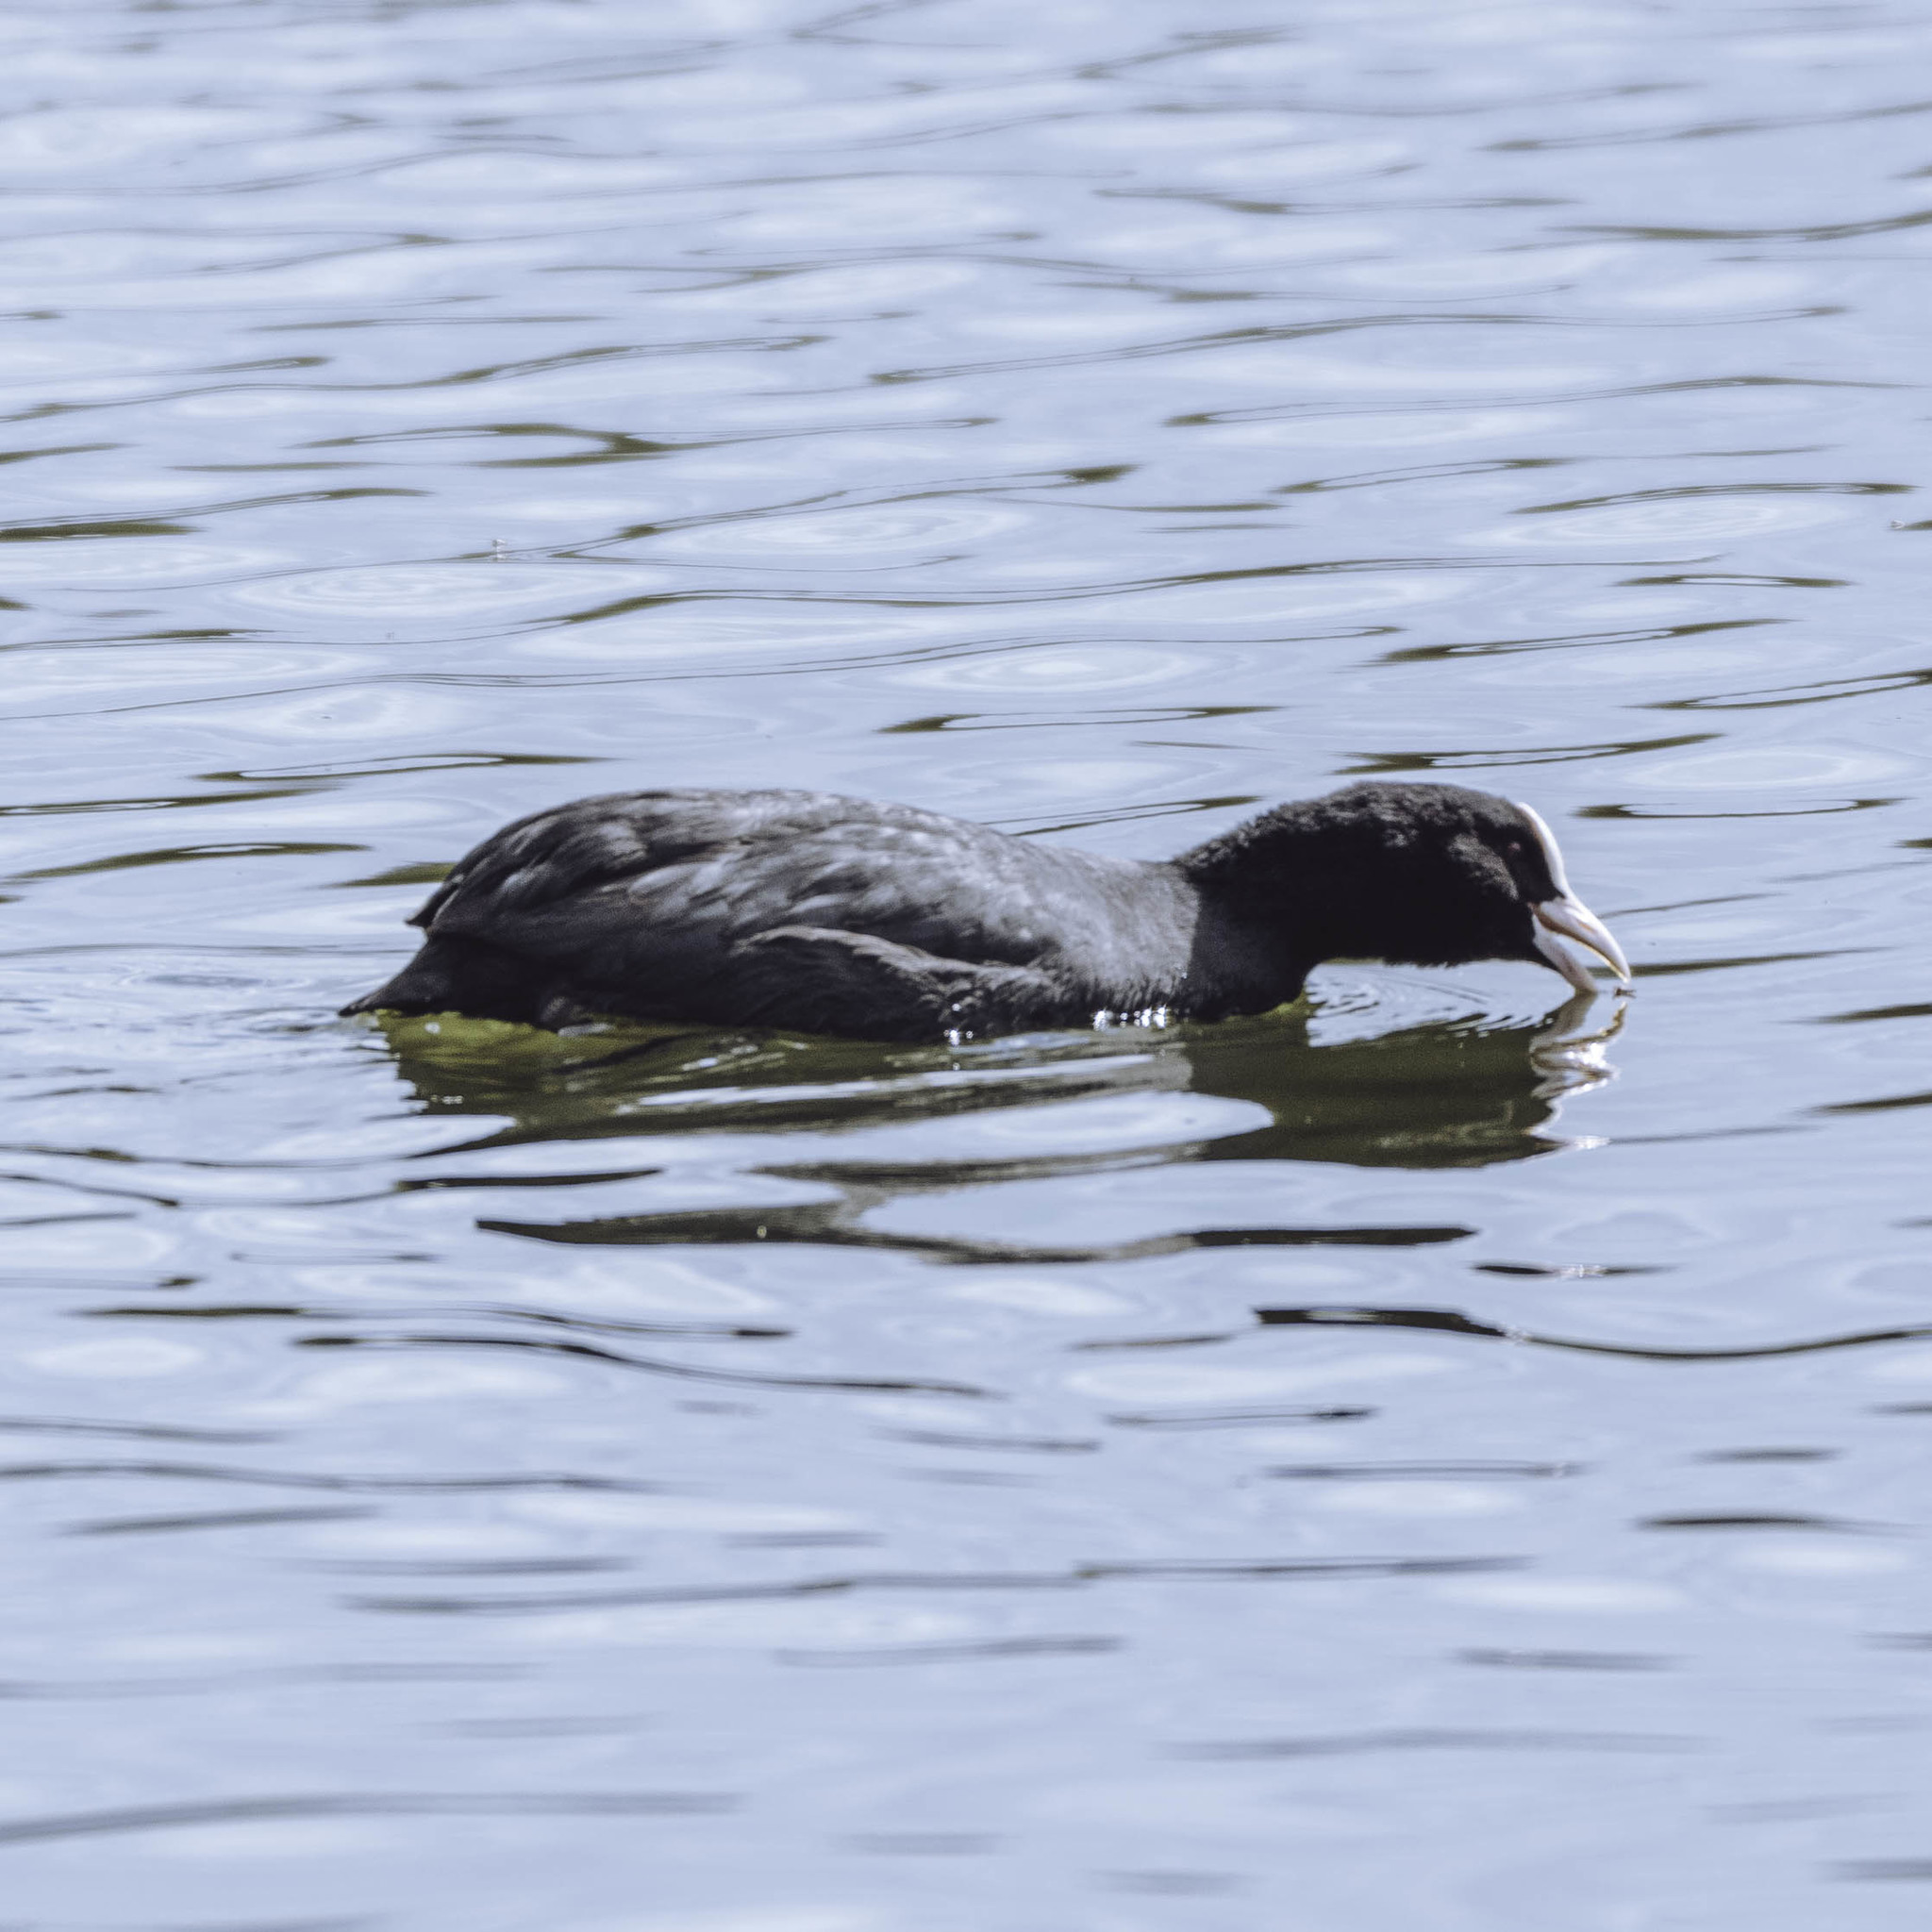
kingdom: Animalia
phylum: Chordata
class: Aves
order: Gruiformes
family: Rallidae
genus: Fulica
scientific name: Fulica atra
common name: Eurasian coot
